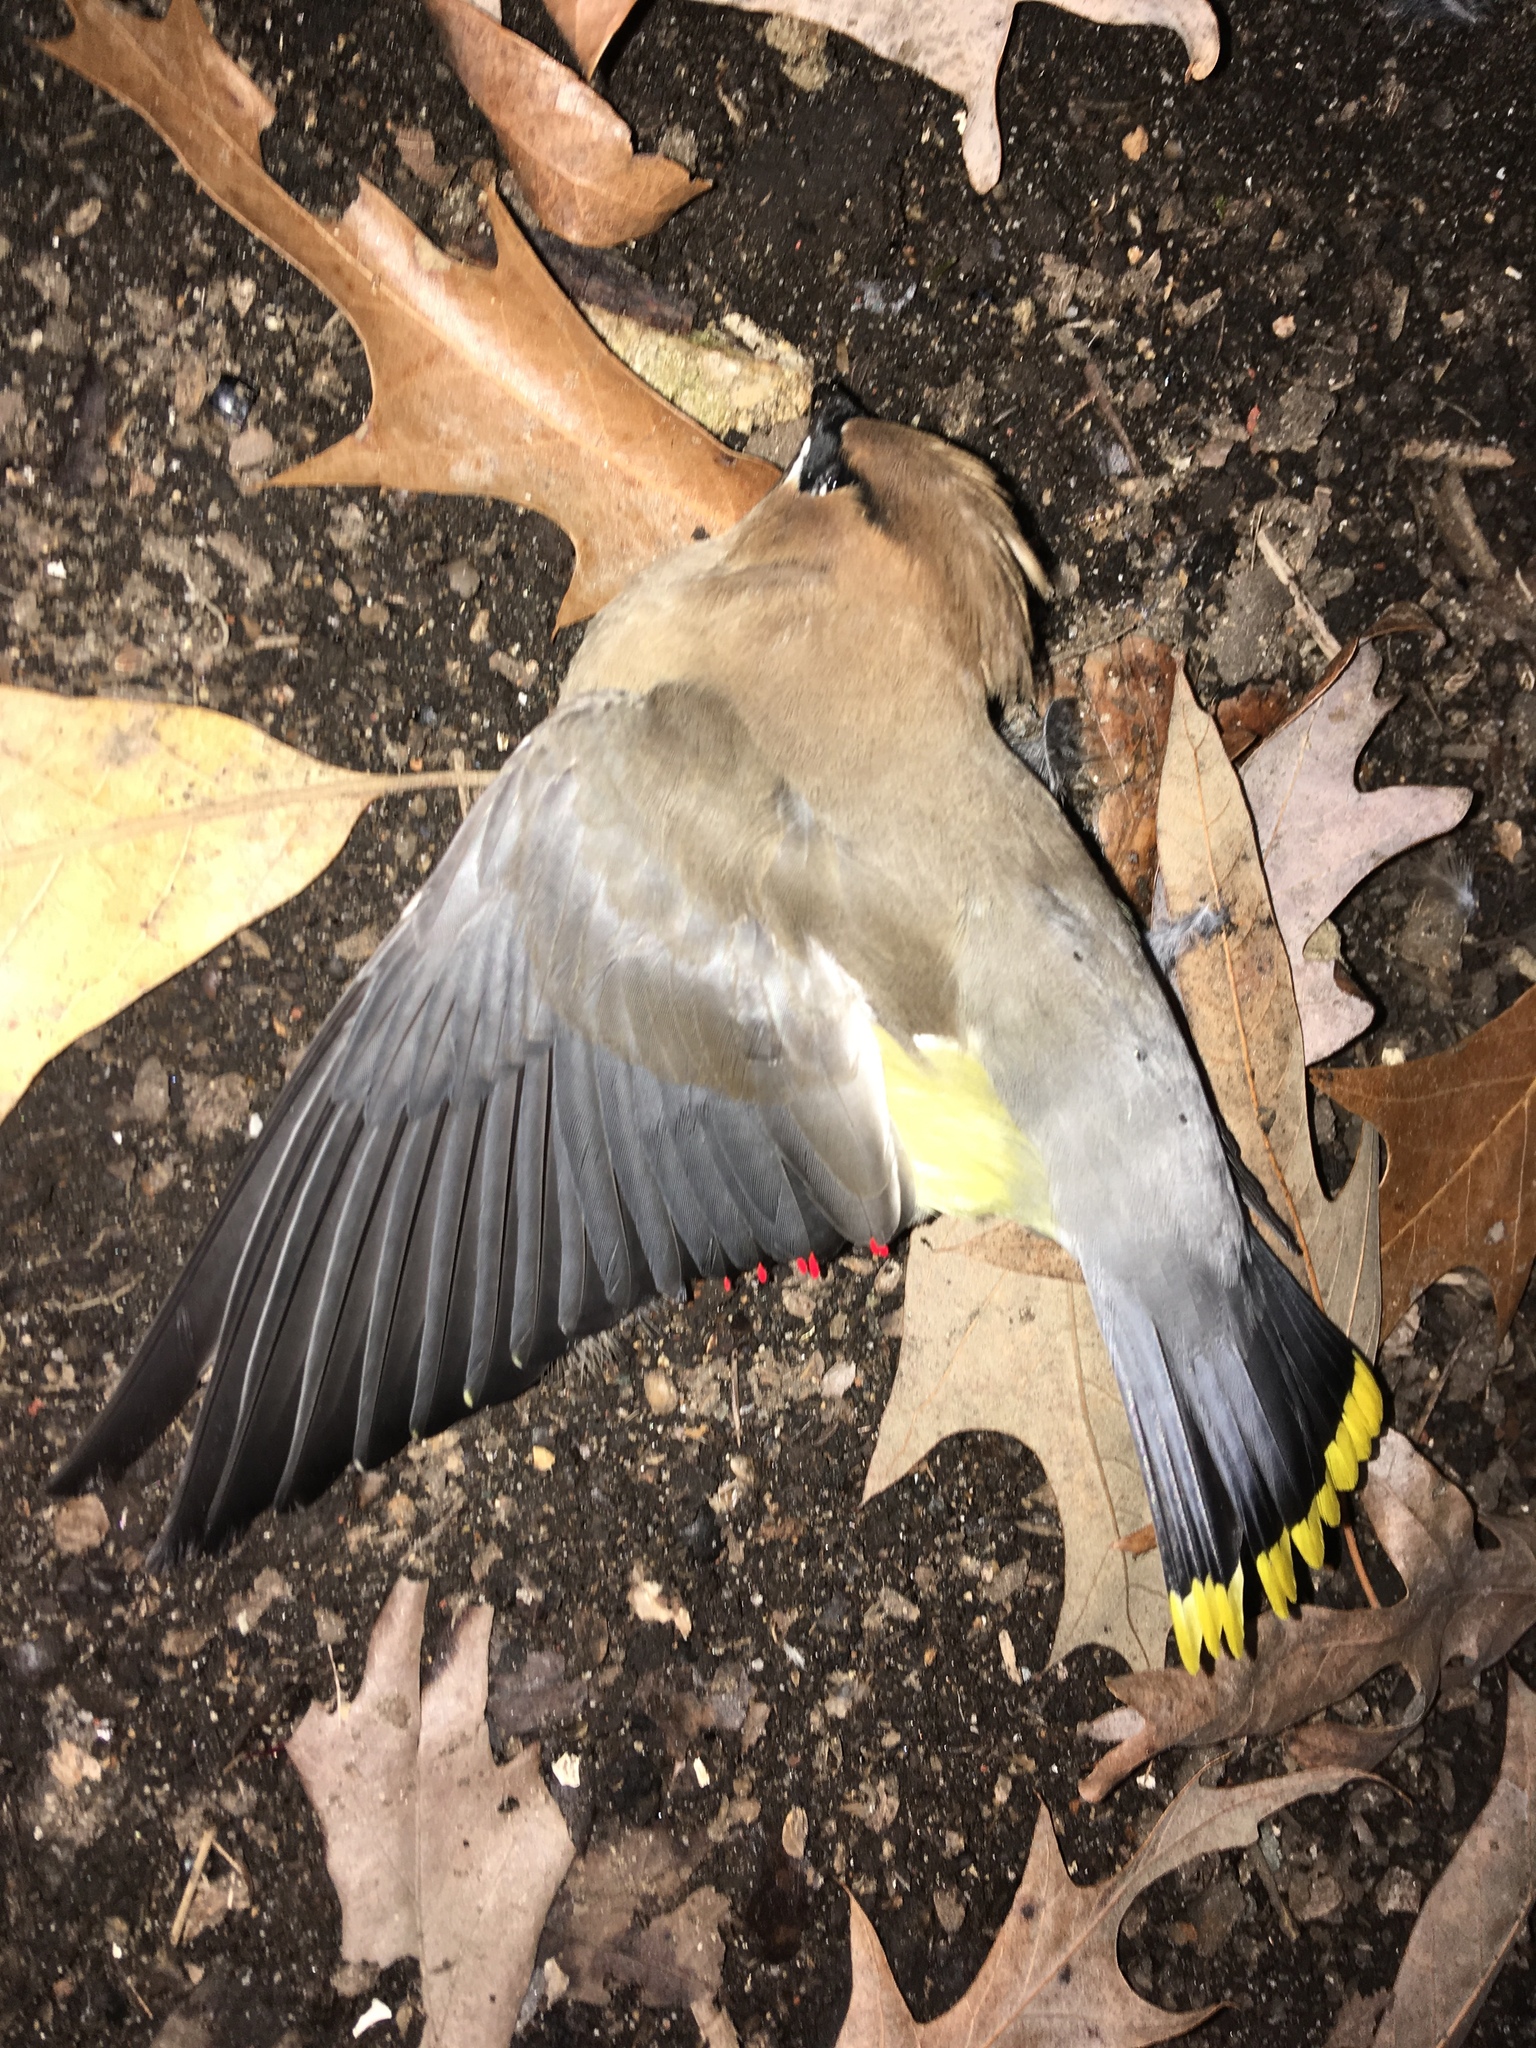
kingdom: Animalia
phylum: Chordata
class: Aves
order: Passeriformes
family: Bombycillidae
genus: Bombycilla
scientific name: Bombycilla cedrorum
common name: Cedar waxwing
